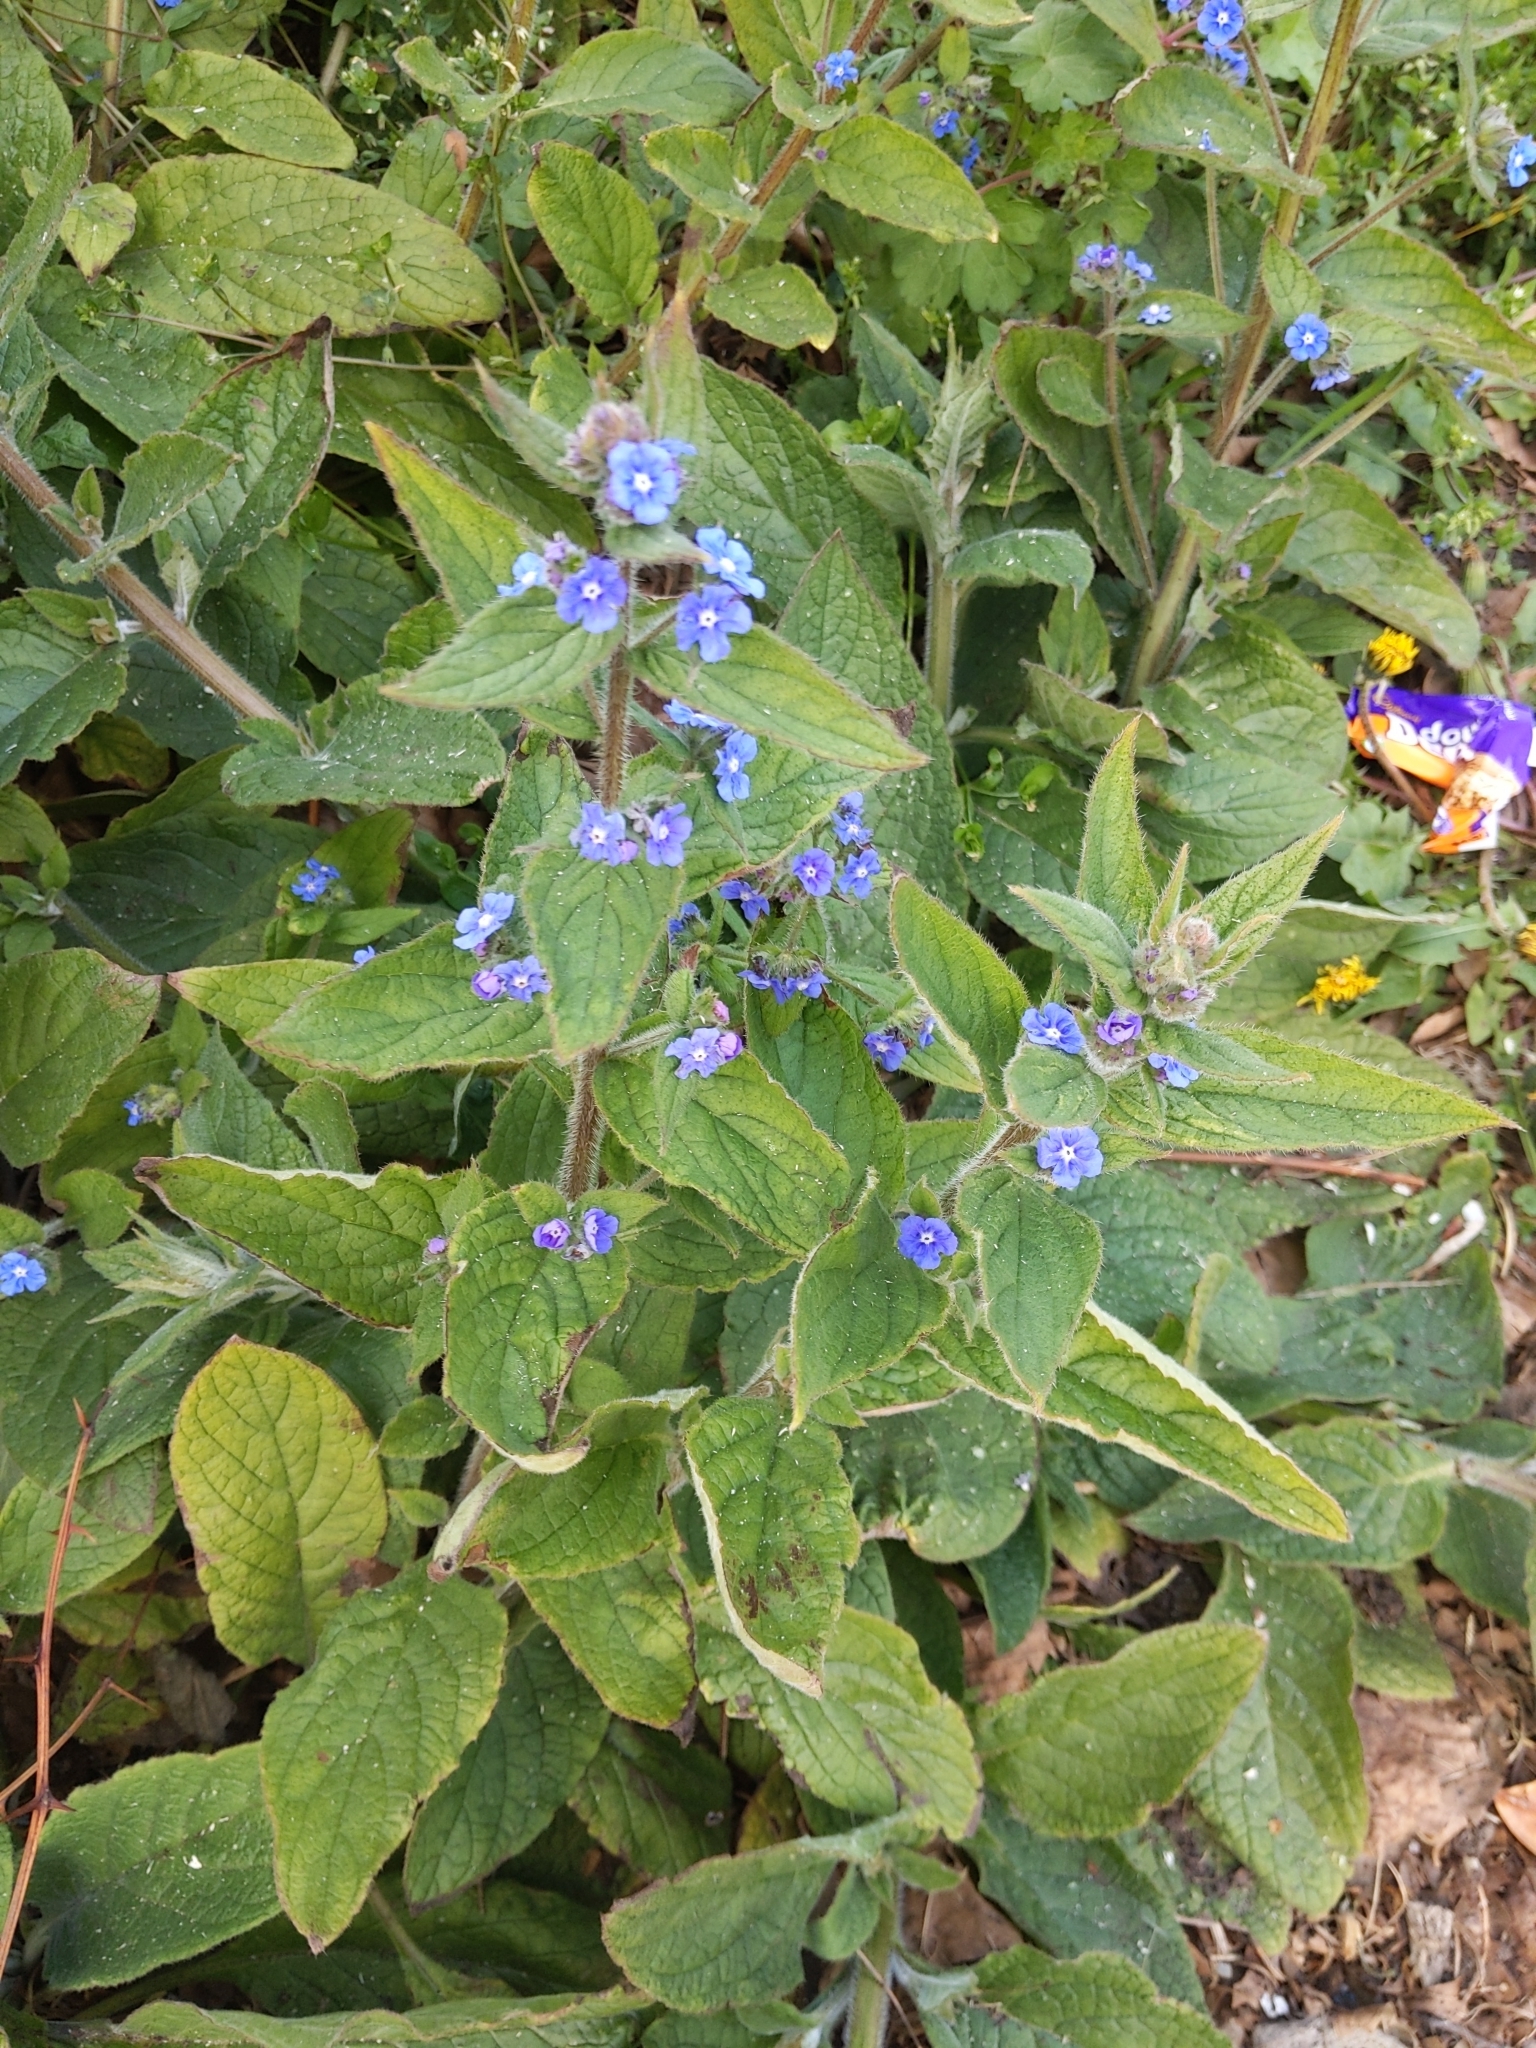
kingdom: Plantae
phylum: Tracheophyta
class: Magnoliopsida
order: Boraginales
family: Boraginaceae
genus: Pentaglottis
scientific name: Pentaglottis sempervirens
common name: Green alkanet
